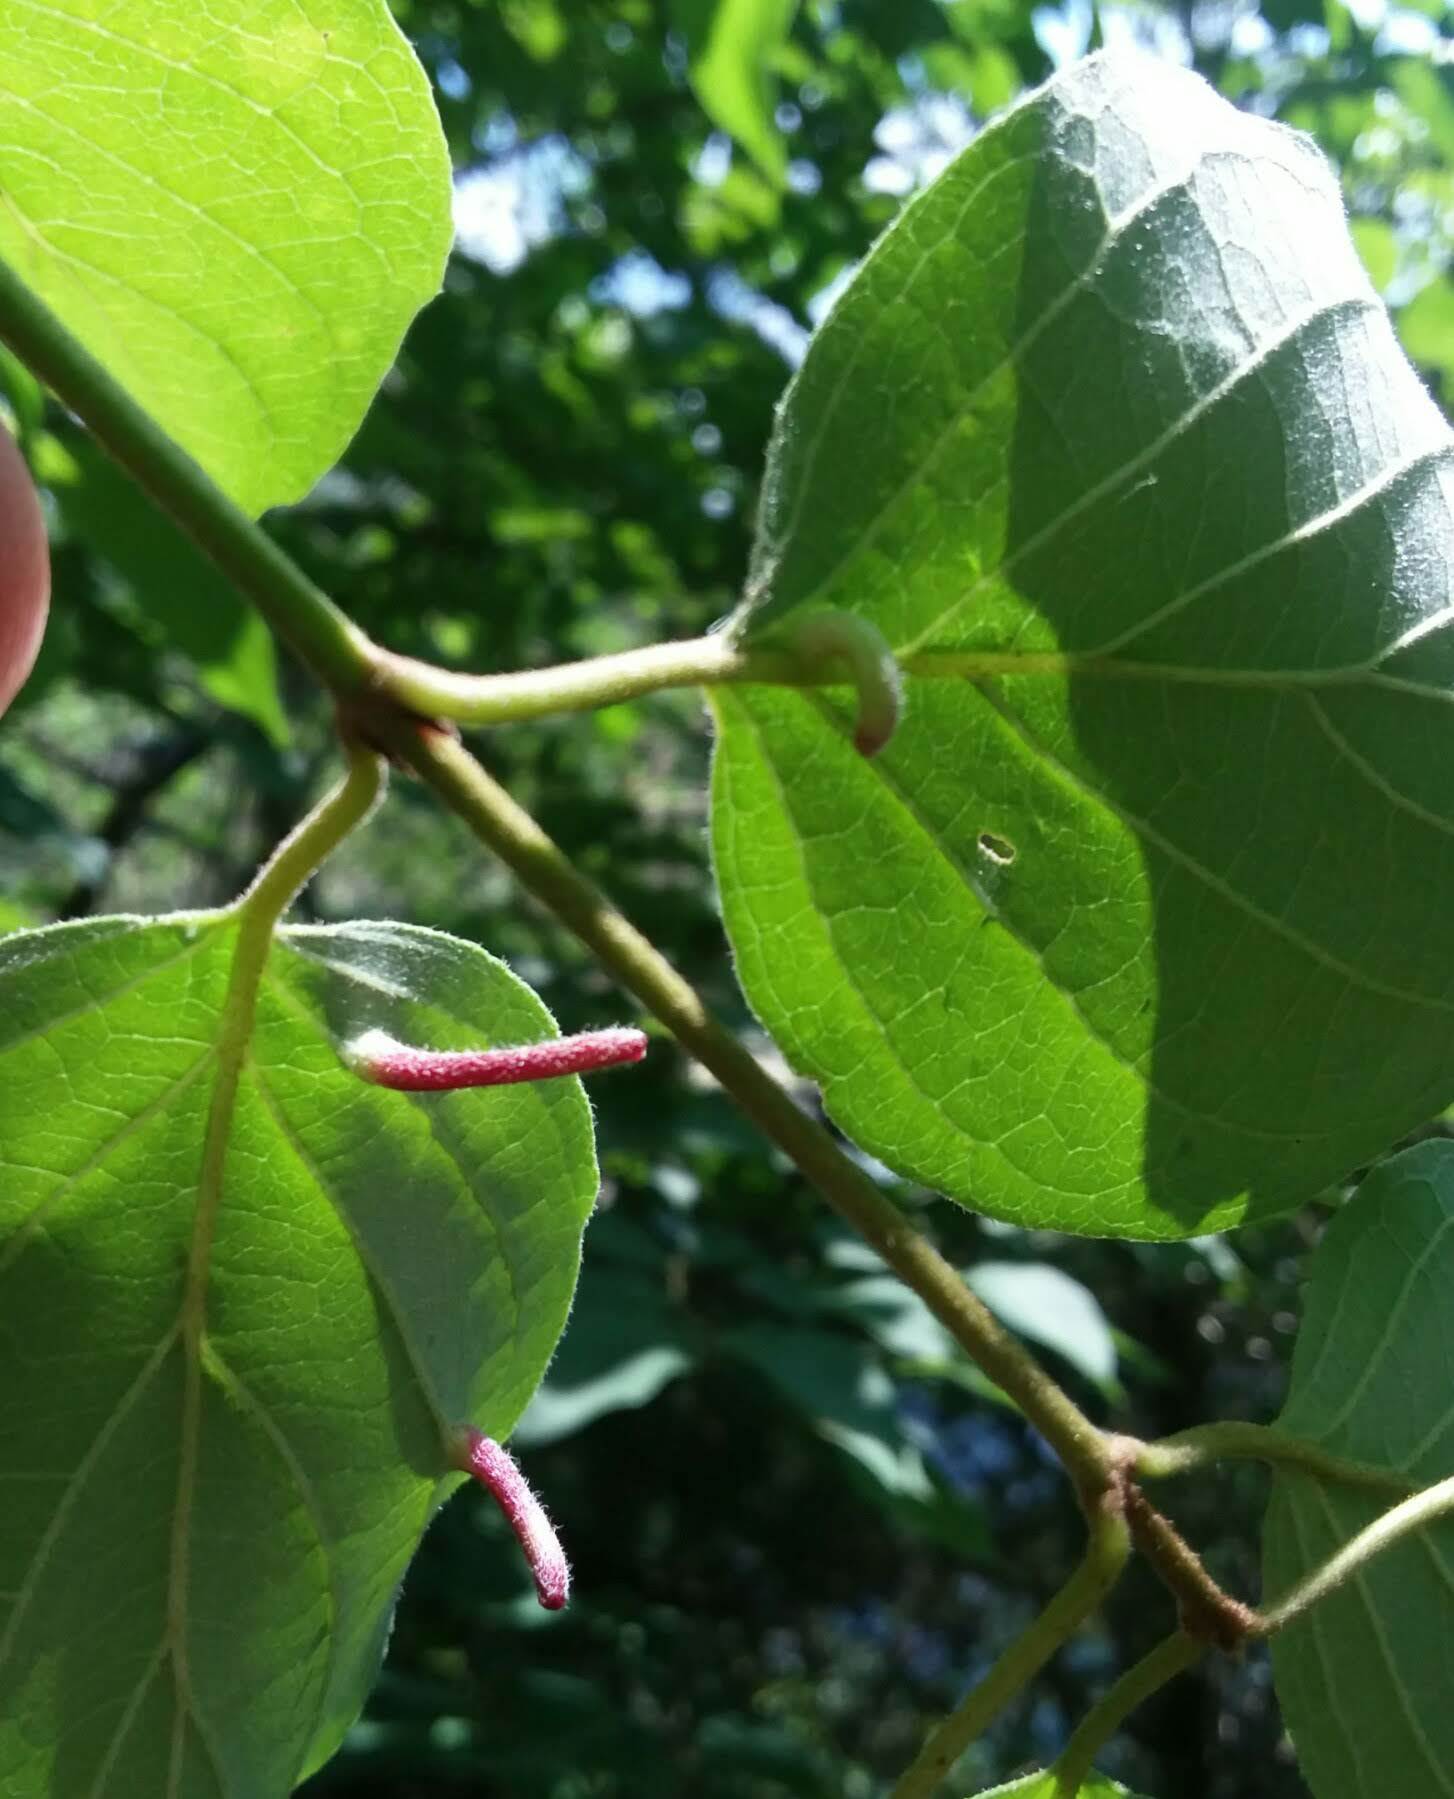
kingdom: Animalia
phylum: Arthropoda
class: Insecta
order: Diptera
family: Cecidomyiidae
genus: Dasineura
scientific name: Dasineura tuba
